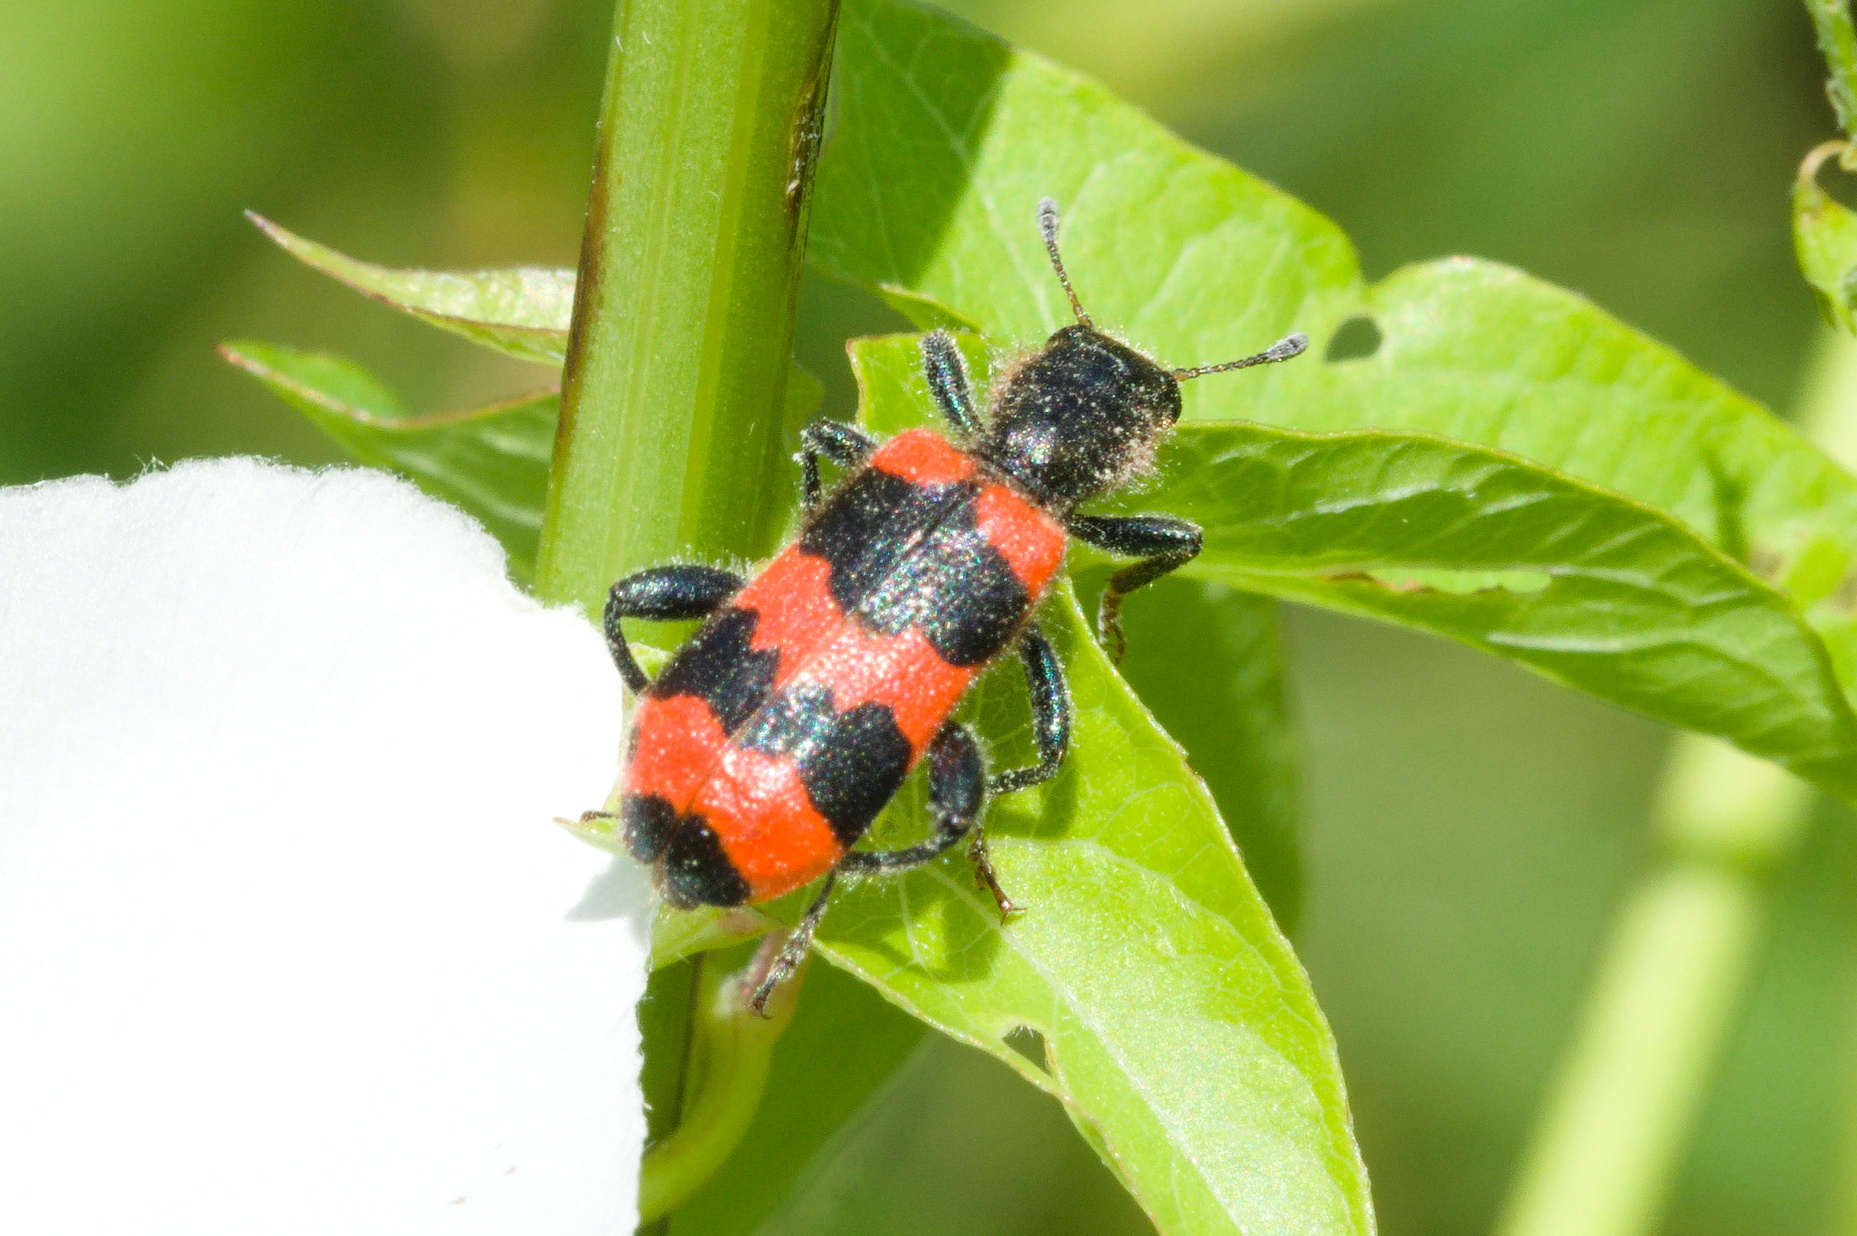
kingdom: Animalia
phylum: Arthropoda
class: Insecta
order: Coleoptera
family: Cleridae
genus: Trichodes
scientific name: Trichodes apiarius
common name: Bee-eating beetle
